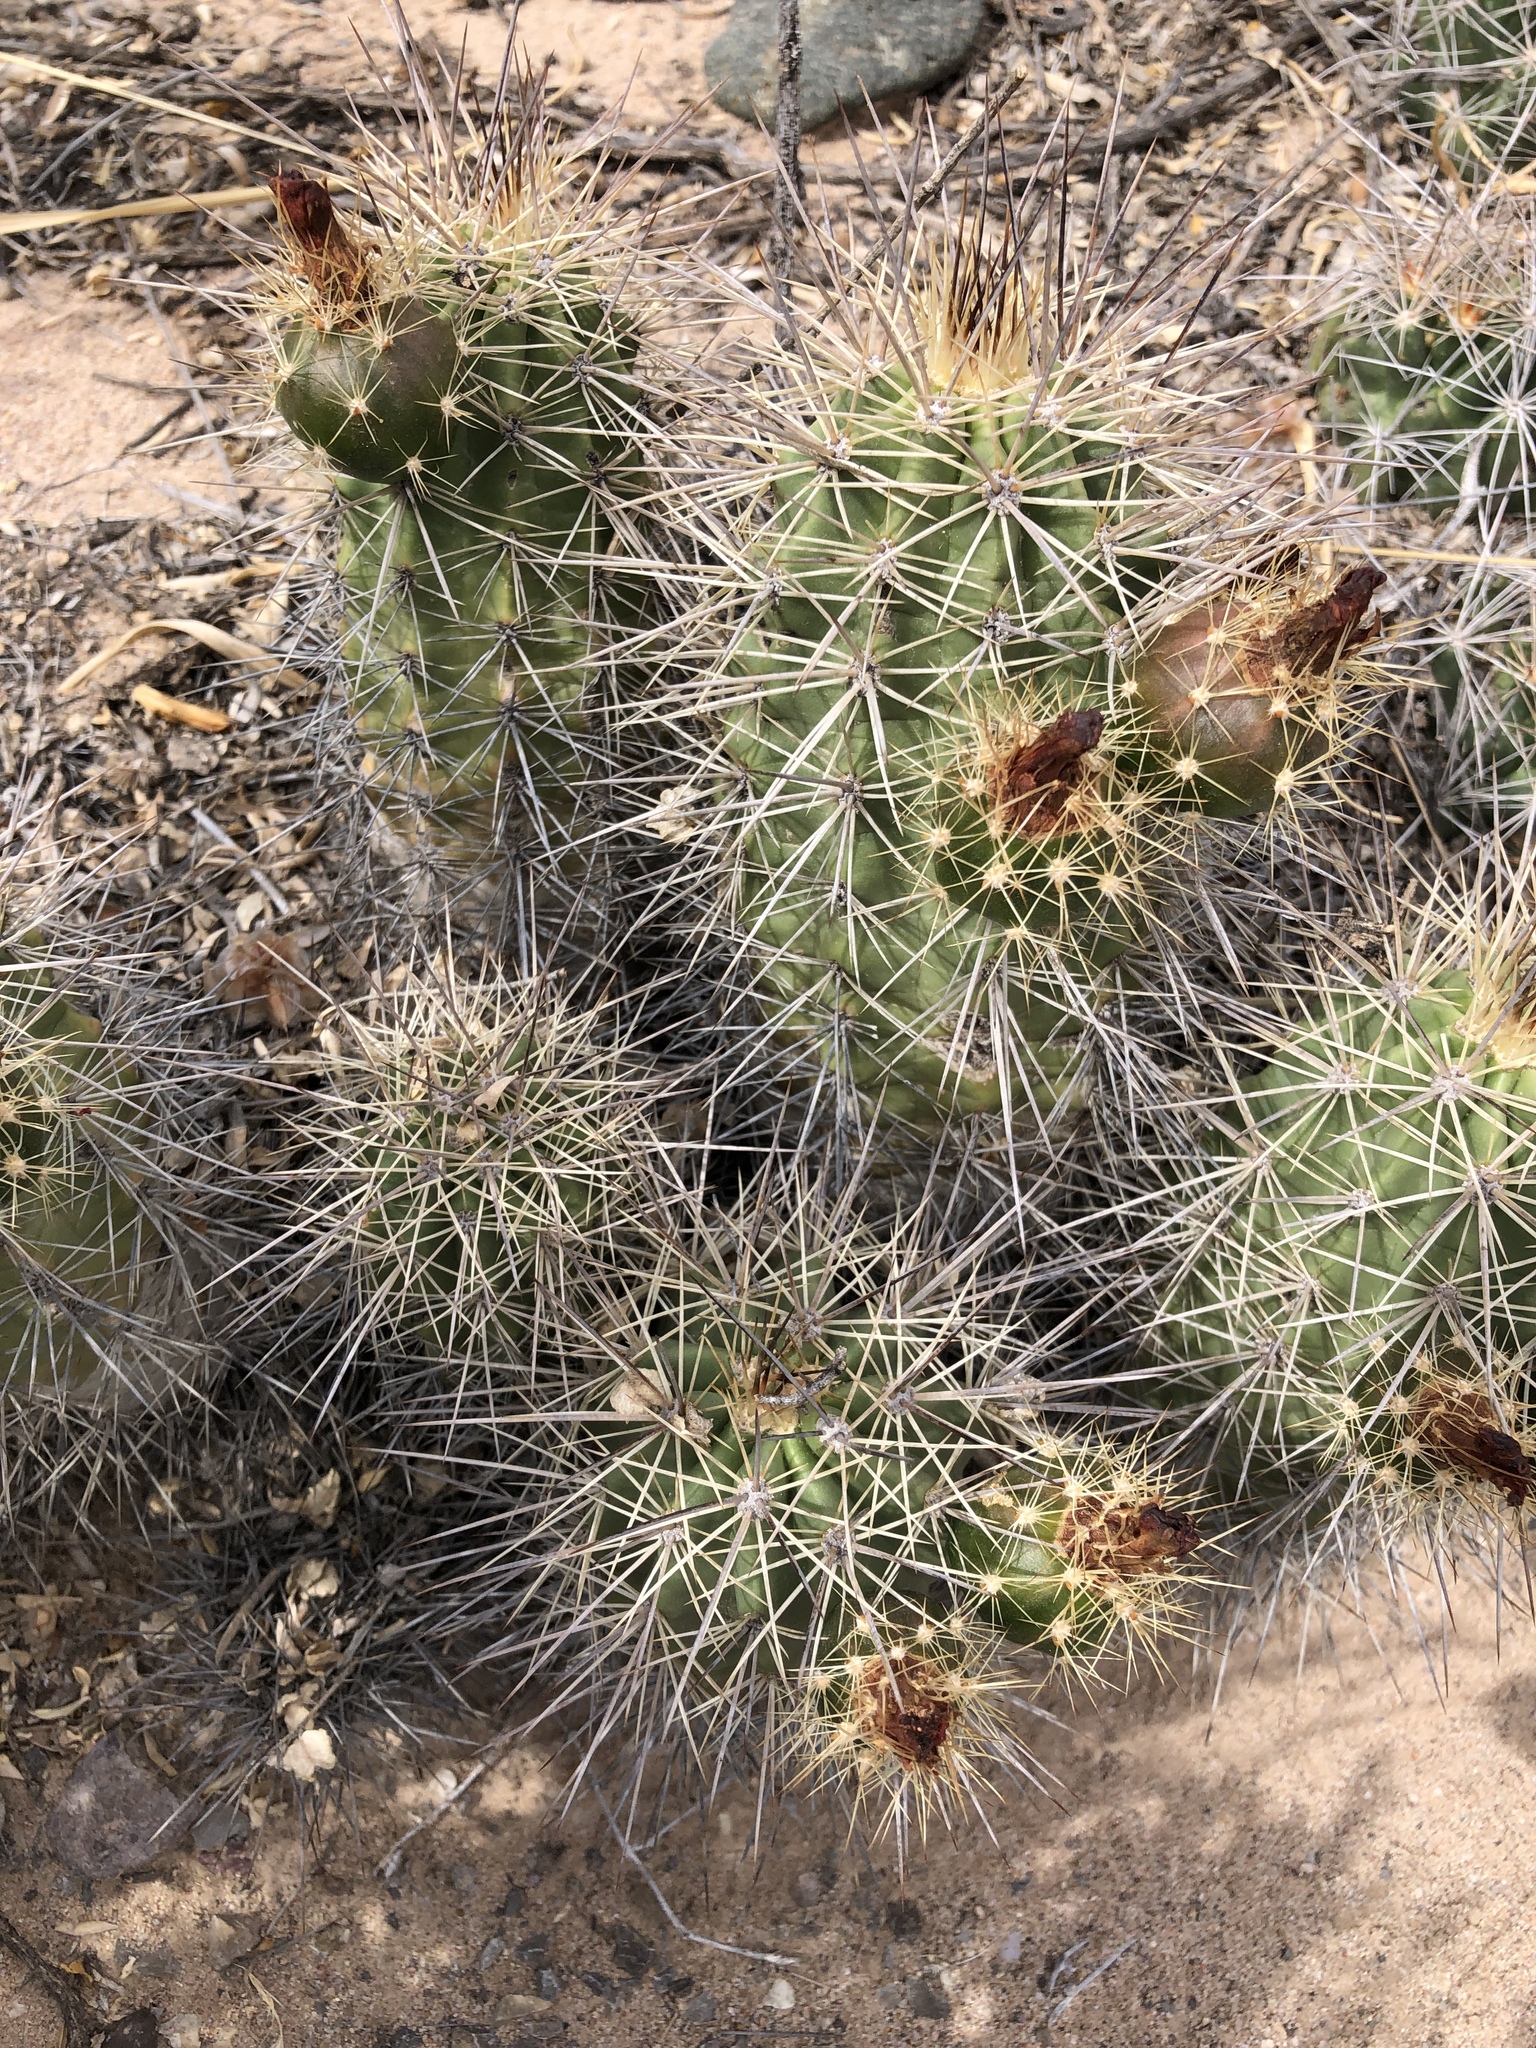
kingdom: Plantae
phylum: Tracheophyta
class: Magnoliopsida
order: Caryophyllales
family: Cactaceae
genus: Echinocereus
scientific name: Echinocereus coccineus
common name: Scarlet hedgehog cactus
